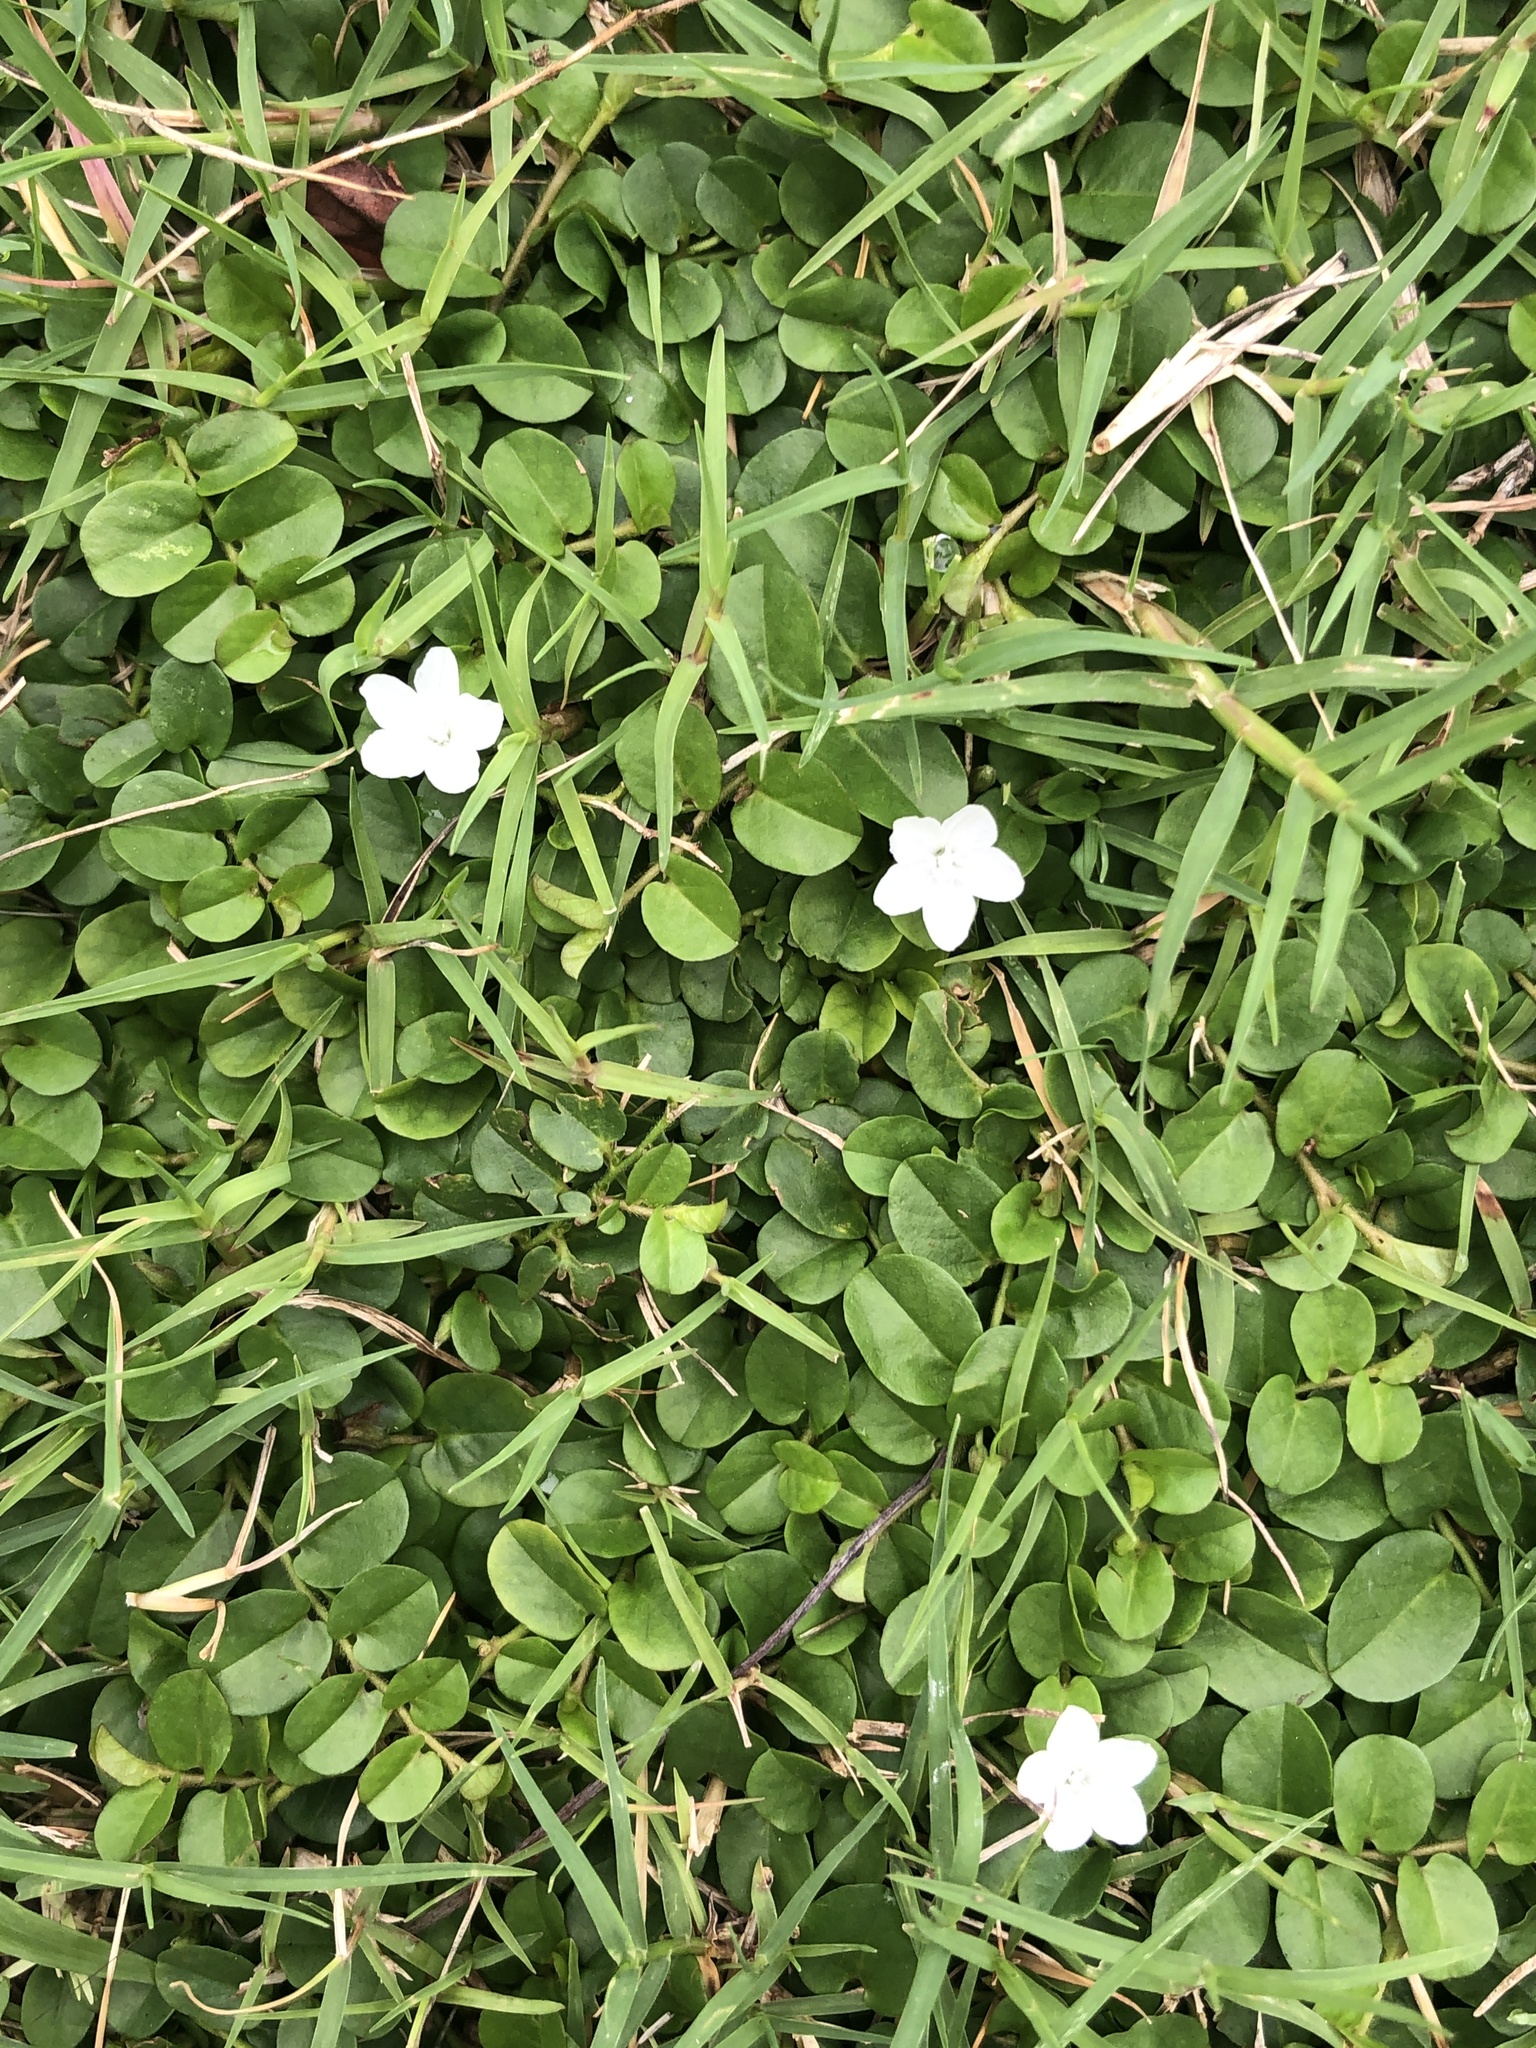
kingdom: Plantae
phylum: Tracheophyta
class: Magnoliopsida
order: Solanales
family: Convolvulaceae
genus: Evolvulus
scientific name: Evolvulus nummularius
